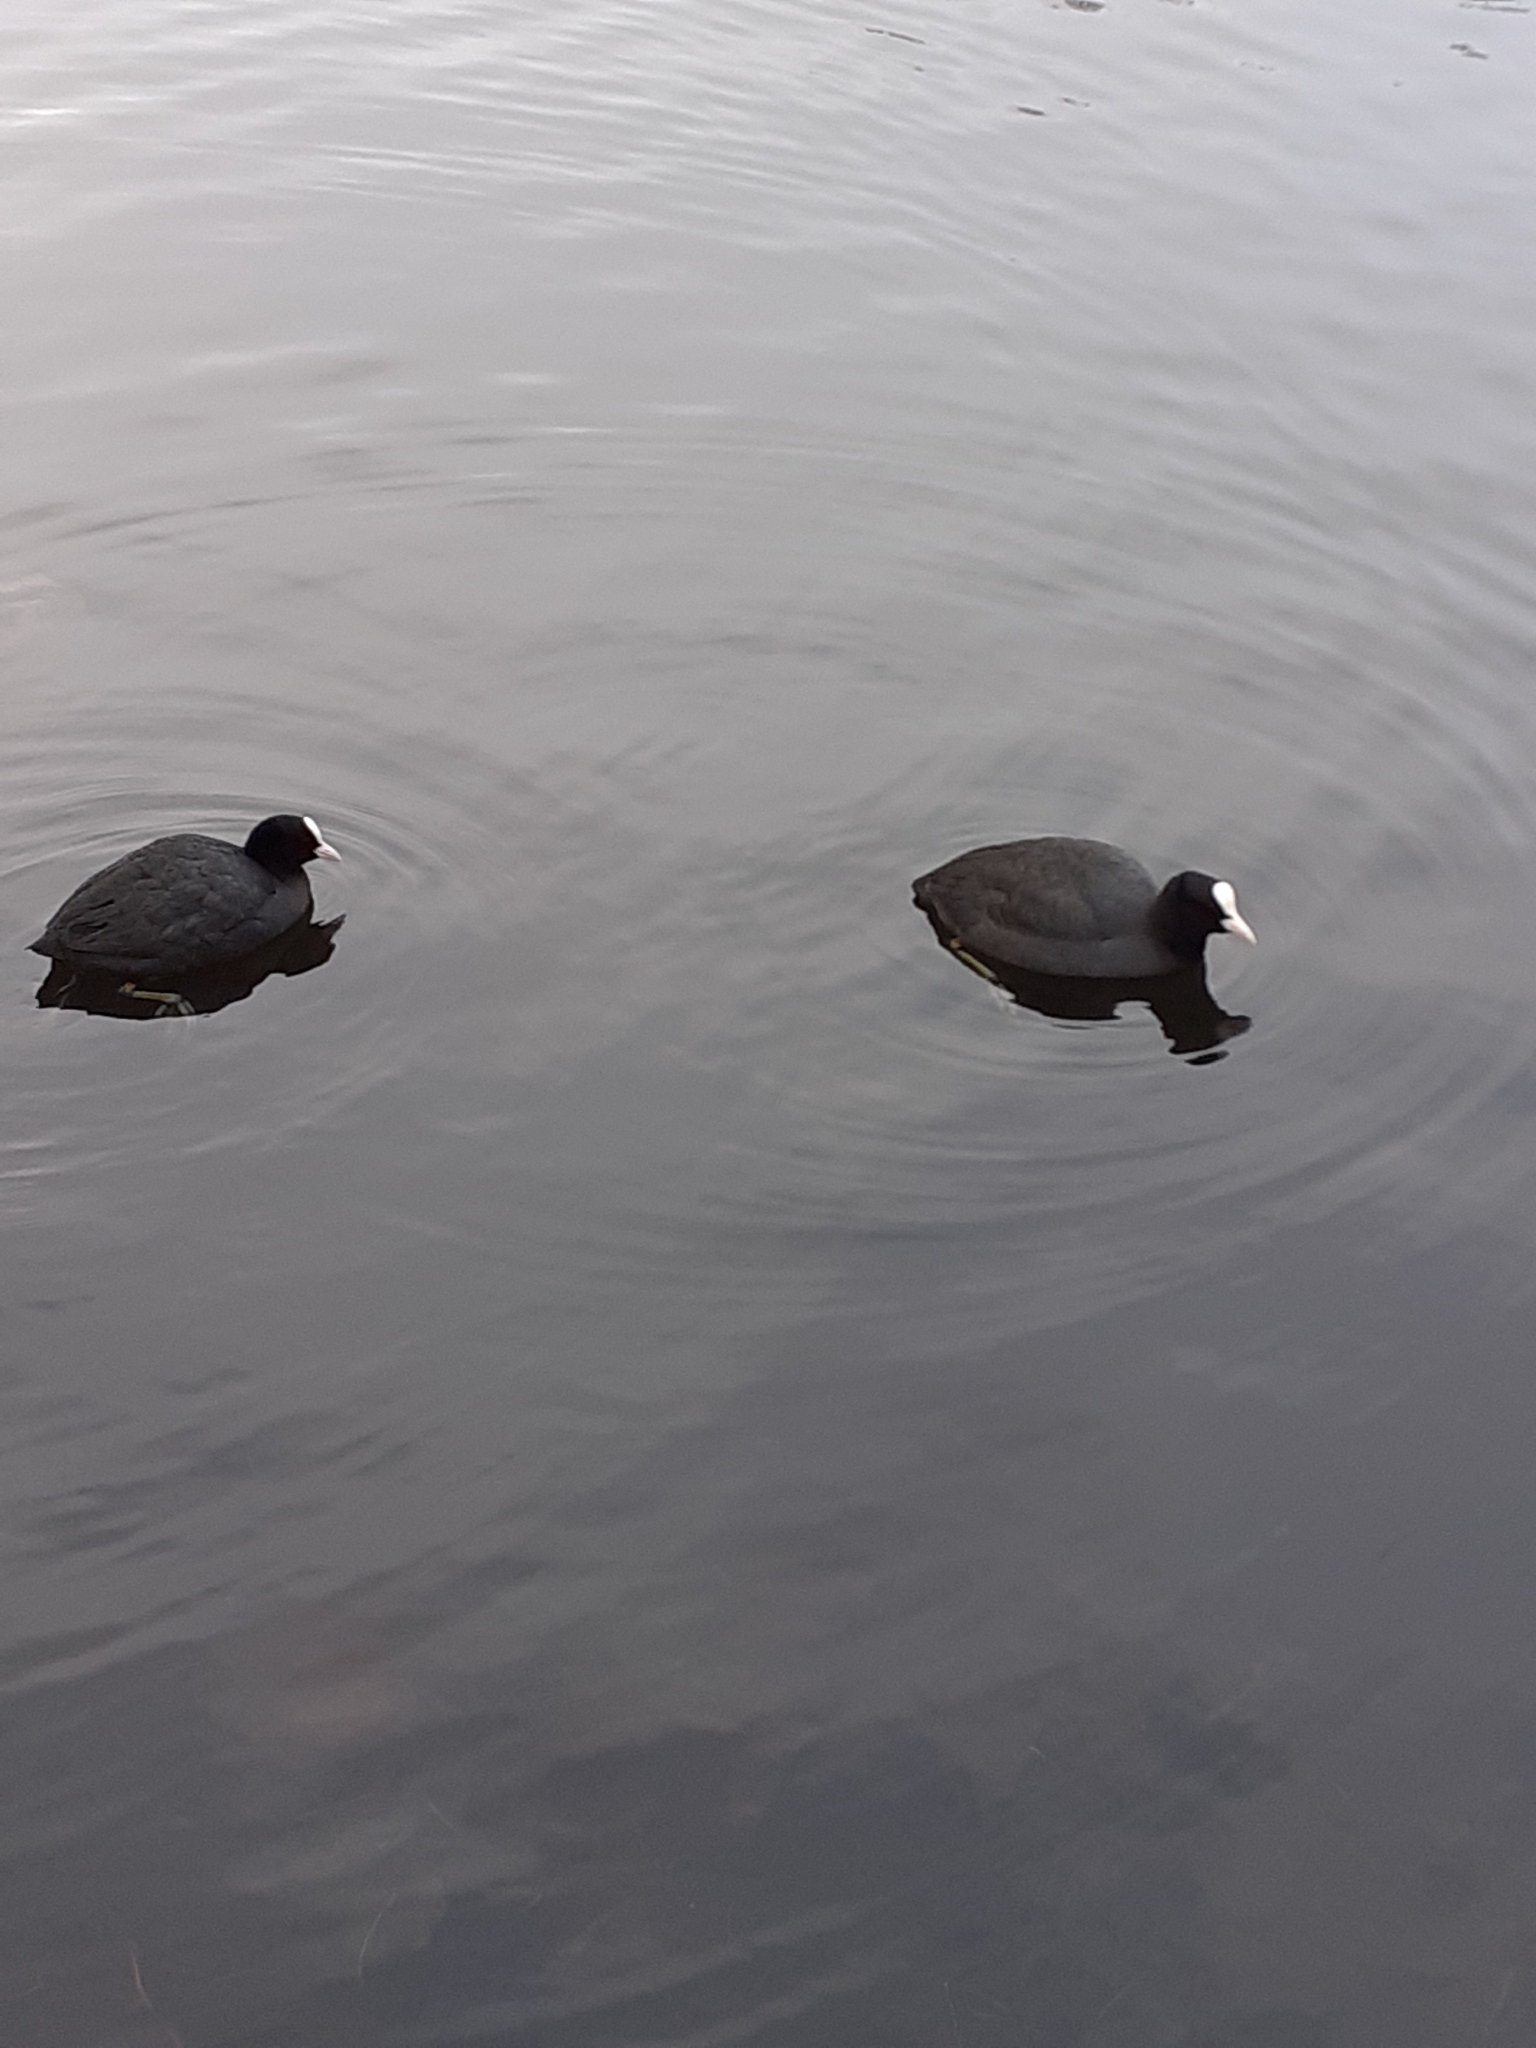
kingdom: Animalia
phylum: Chordata
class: Aves
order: Gruiformes
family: Rallidae
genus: Fulica
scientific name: Fulica atra
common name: Eurasian coot
